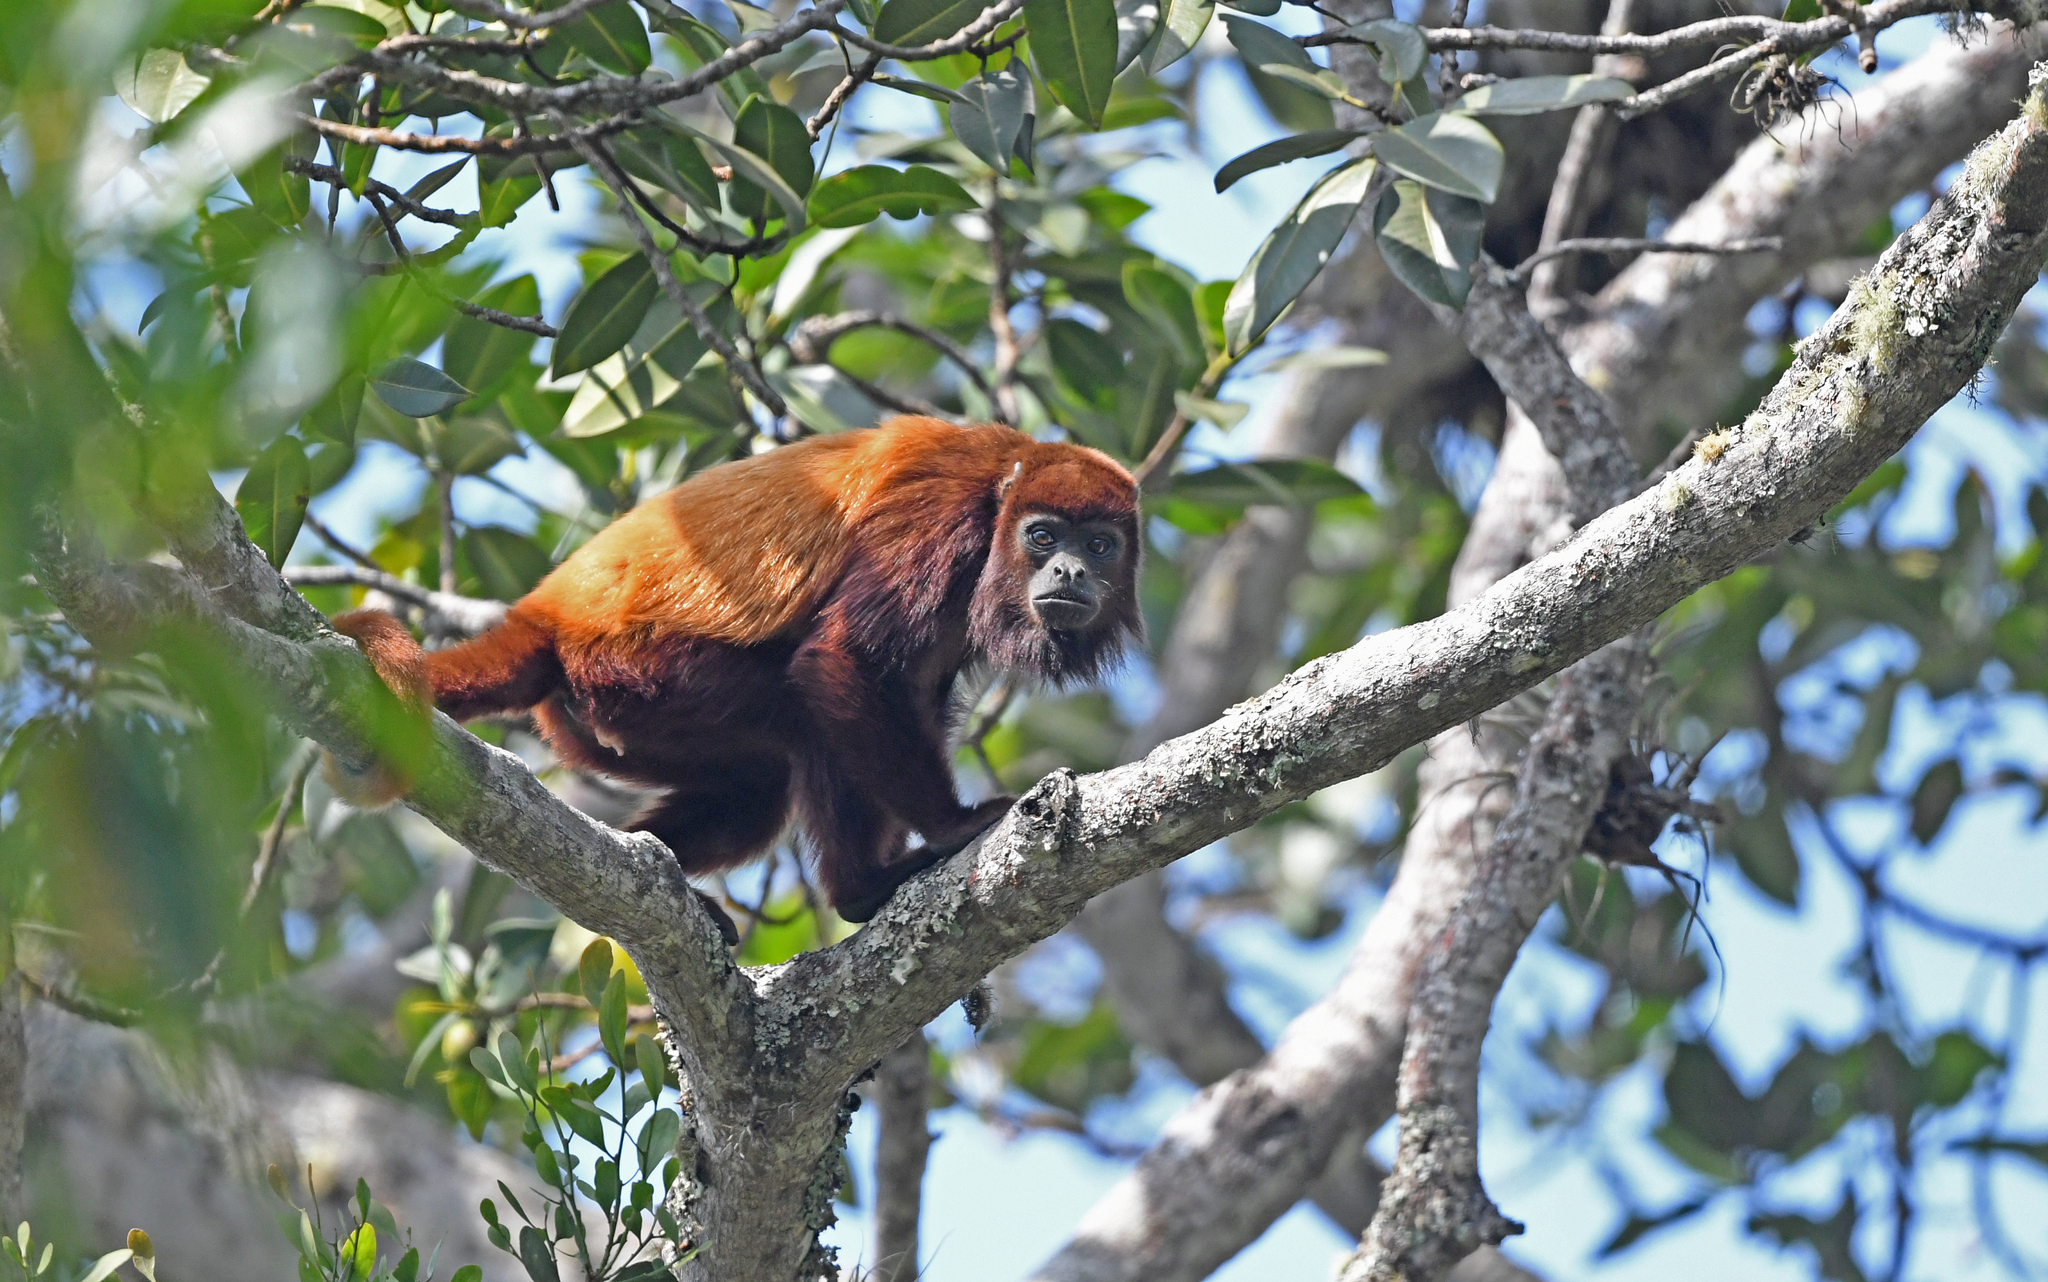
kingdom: Animalia
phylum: Chordata
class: Mammalia
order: Primates
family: Atelidae
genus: Alouatta
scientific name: Alouatta seniculus
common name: Venezuelan red howler
